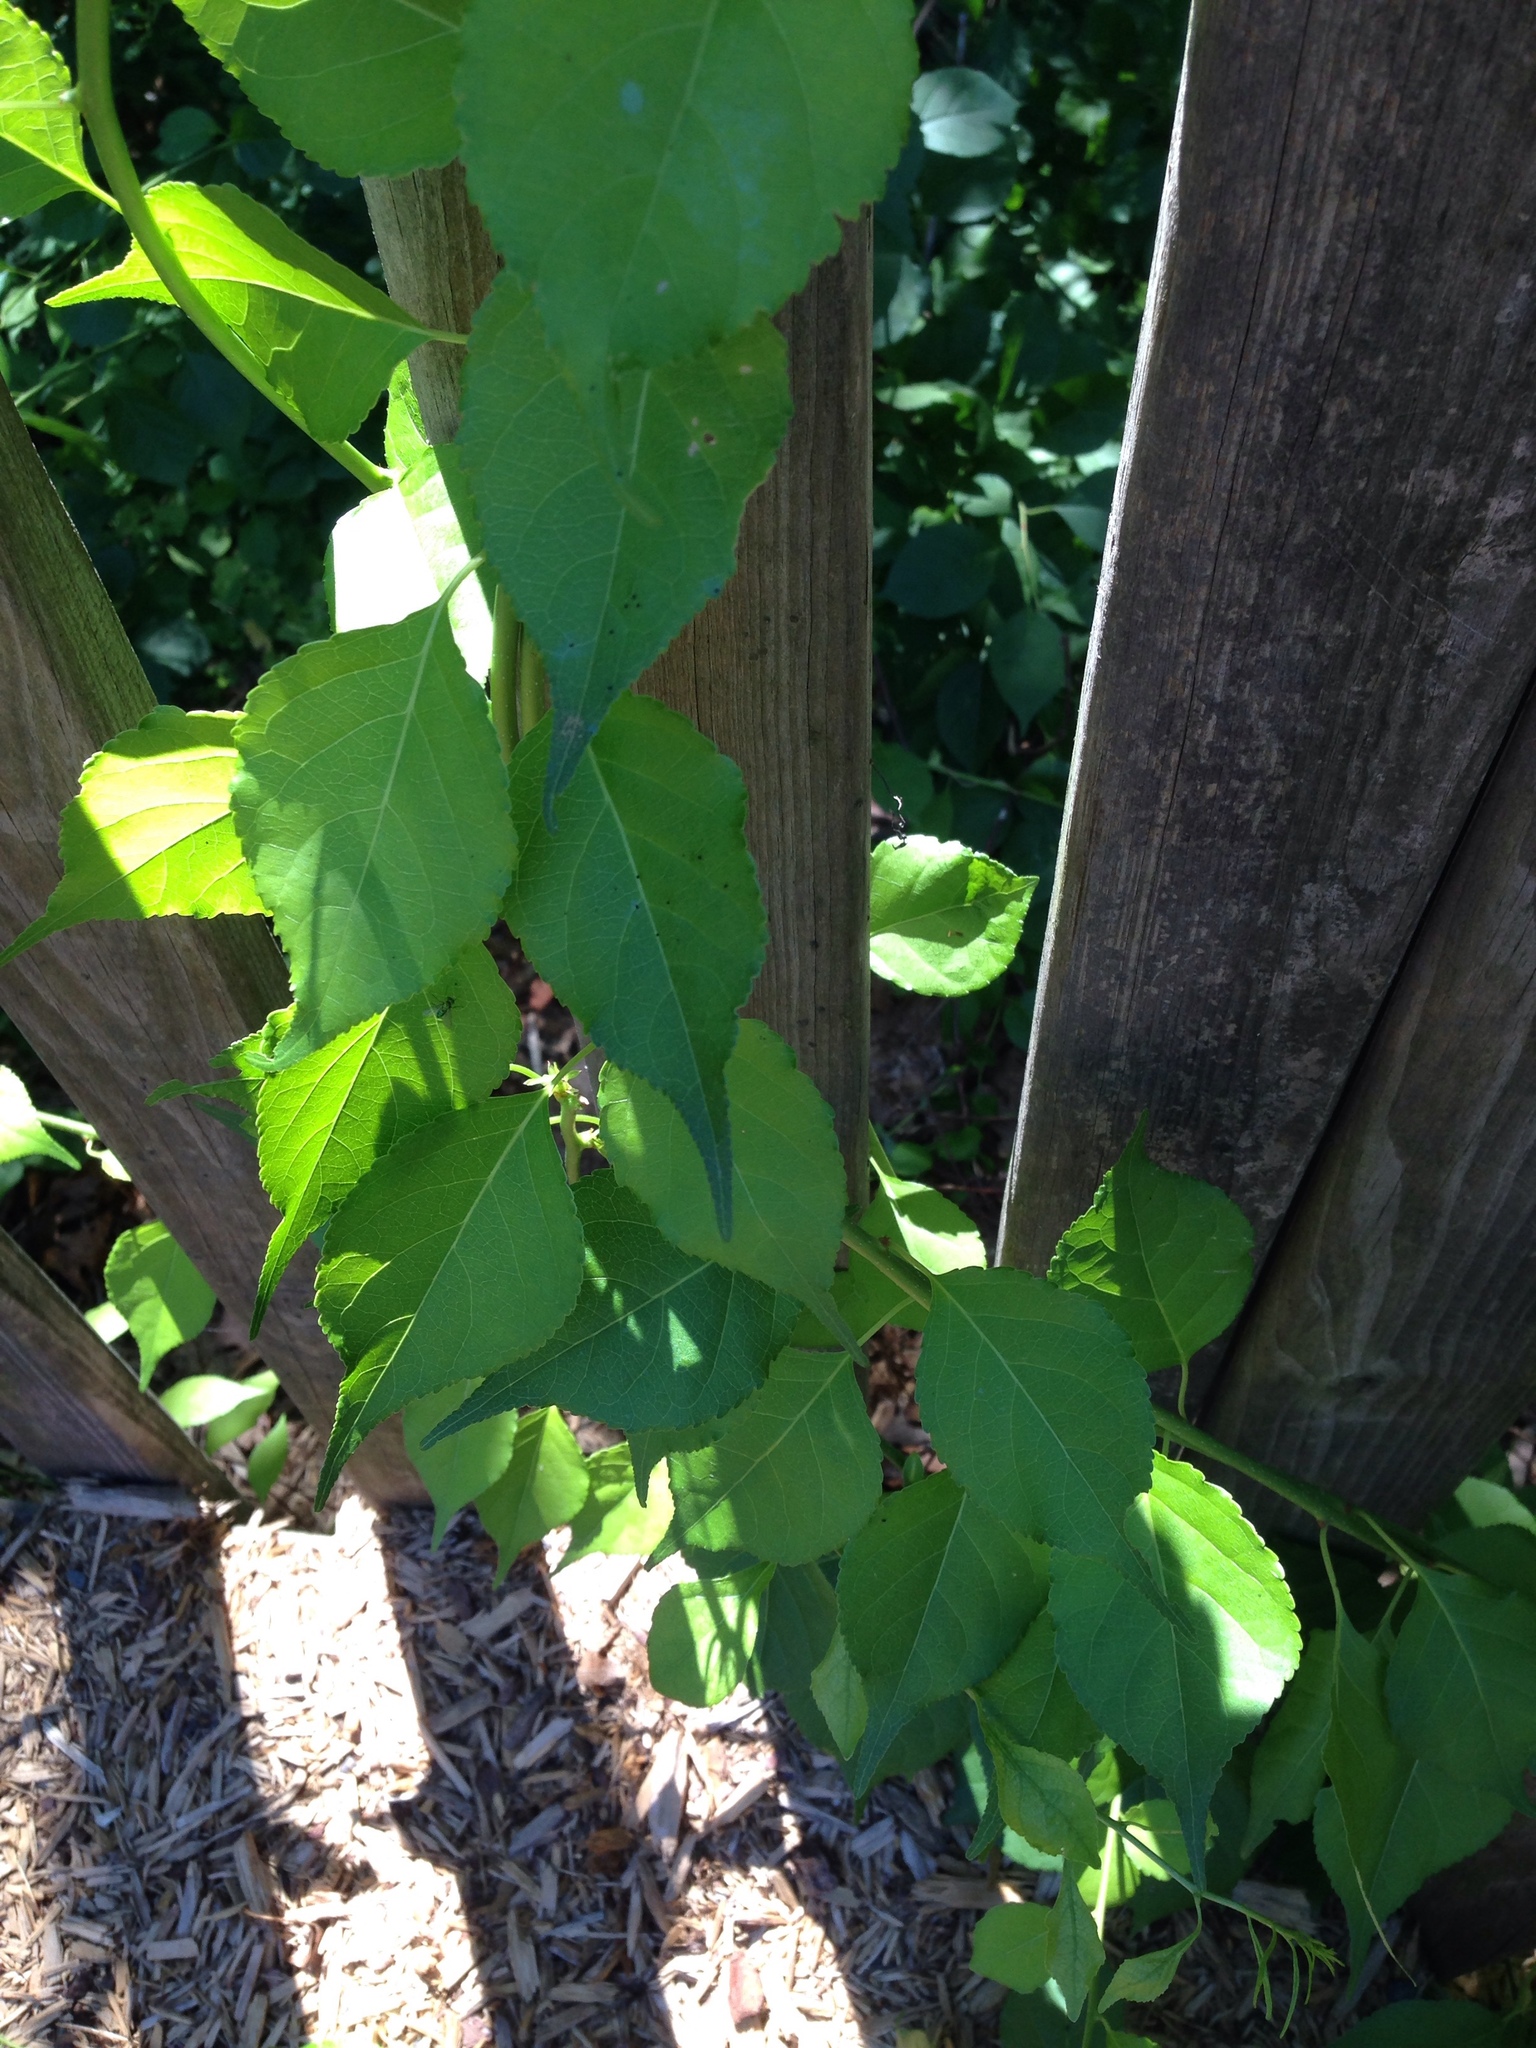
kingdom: Plantae
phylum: Tracheophyta
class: Magnoliopsida
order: Celastrales
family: Celastraceae
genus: Celastrus
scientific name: Celastrus orbiculatus
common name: Oriental bittersweet
